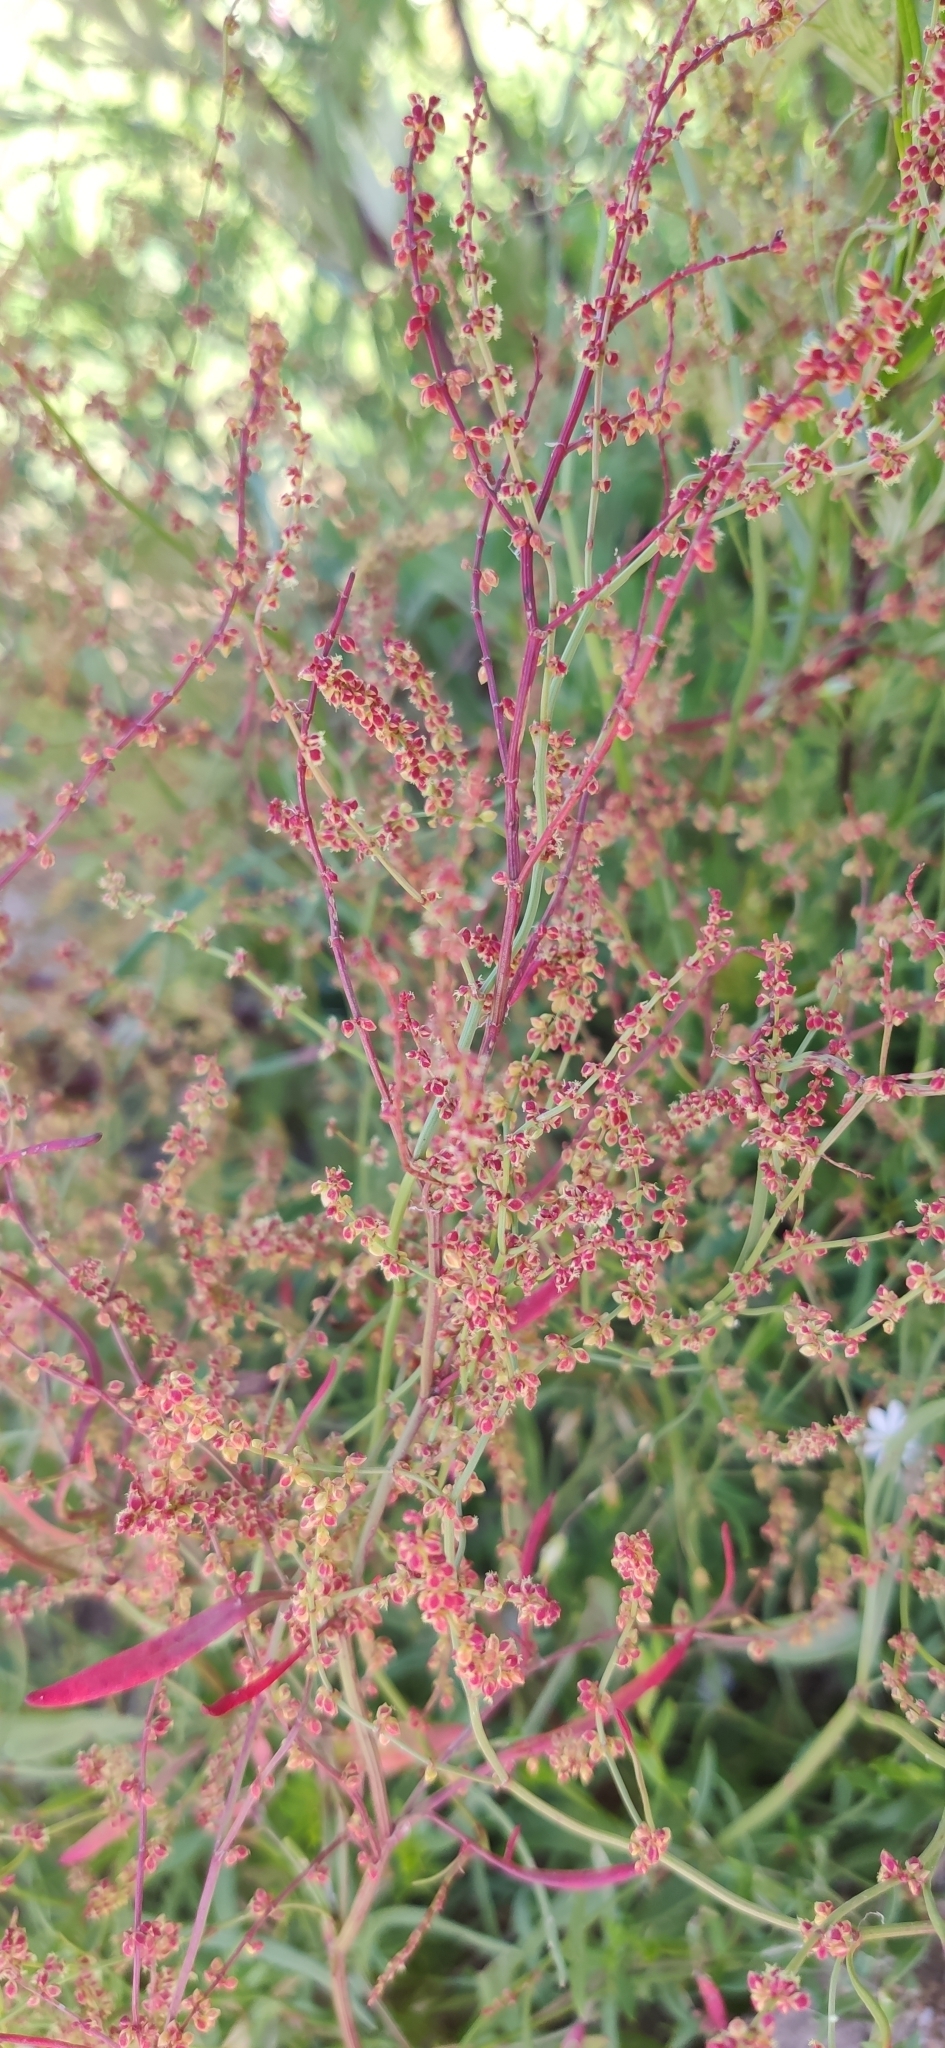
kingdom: Plantae
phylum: Tracheophyta
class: Magnoliopsida
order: Caryophyllales
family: Polygonaceae
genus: Rumex
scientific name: Rumex acetosella
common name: Common sheep sorrel
